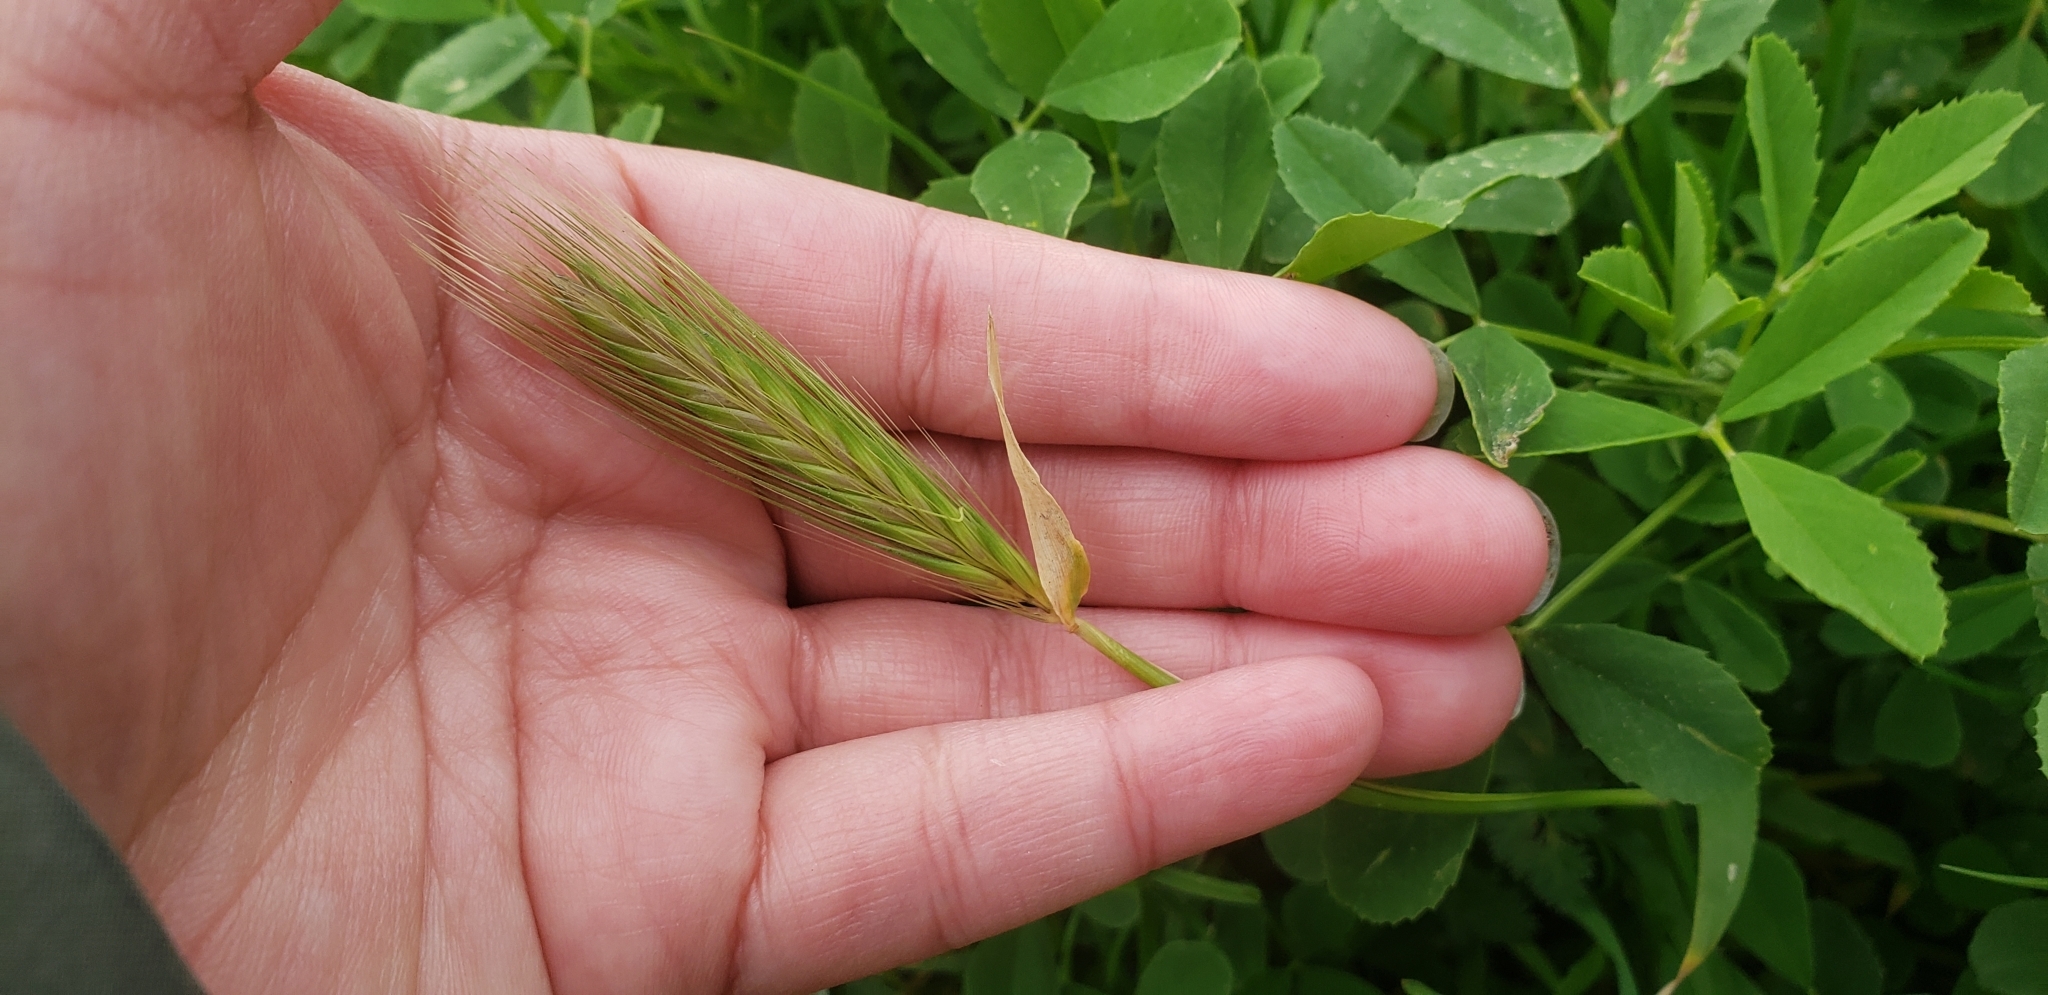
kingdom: Plantae
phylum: Tracheophyta
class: Liliopsida
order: Poales
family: Poaceae
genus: Hordeum
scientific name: Hordeum murinum
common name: Wall barley
